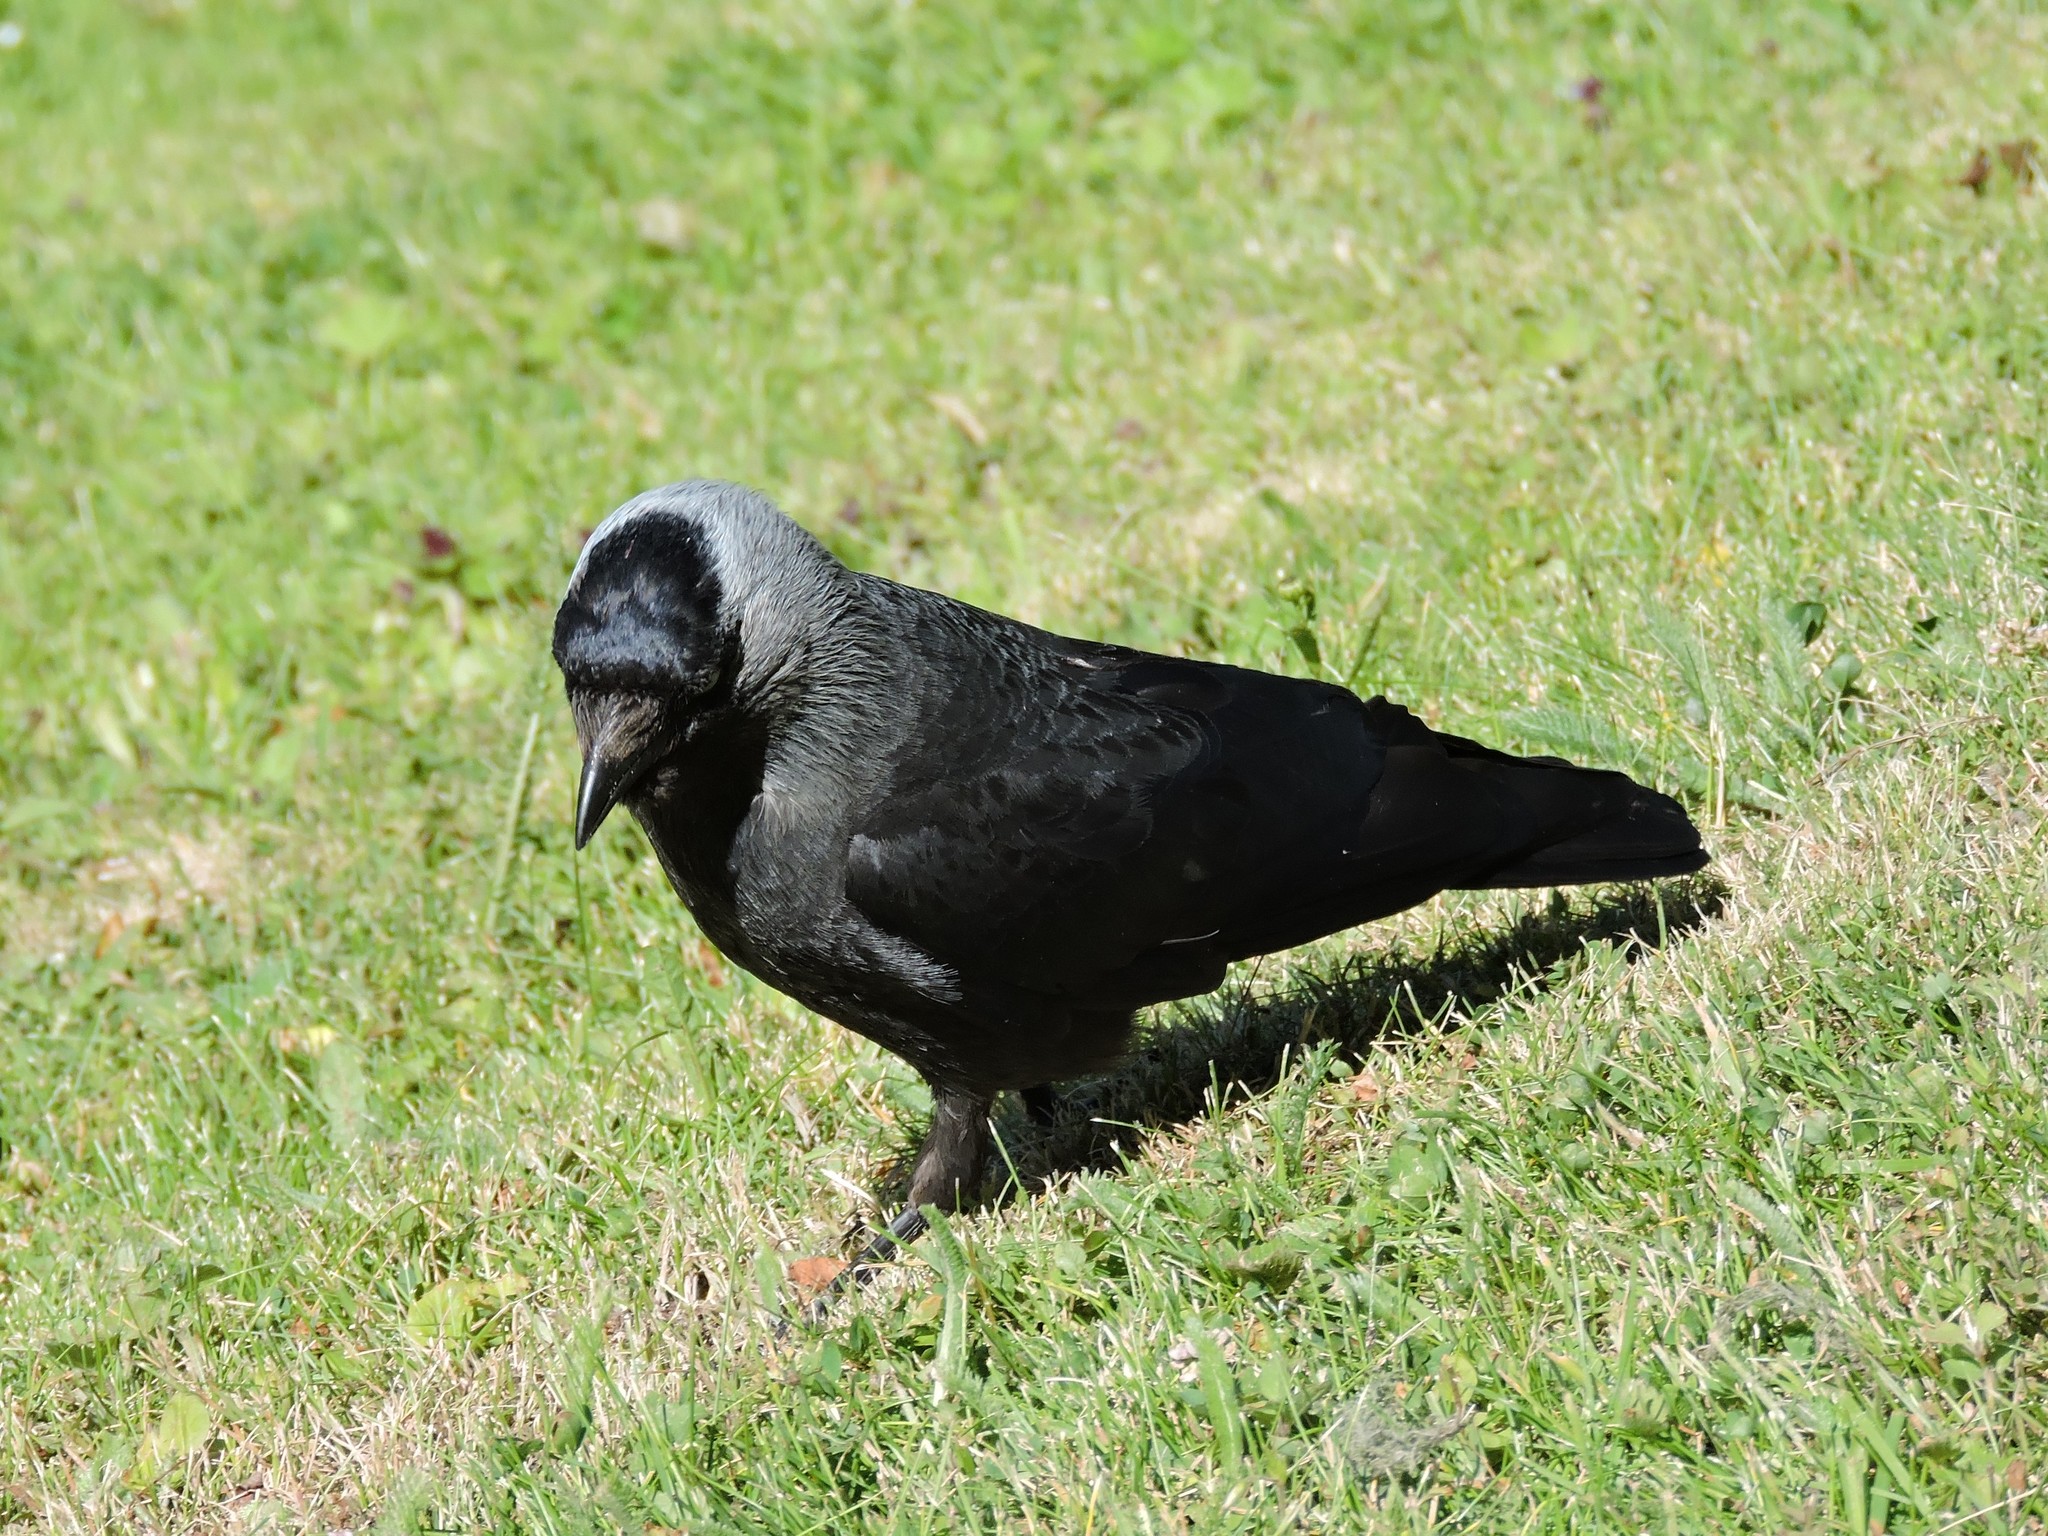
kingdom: Animalia
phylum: Chordata
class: Aves
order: Passeriformes
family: Corvidae
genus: Coloeus
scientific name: Coloeus monedula
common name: Western jackdaw
